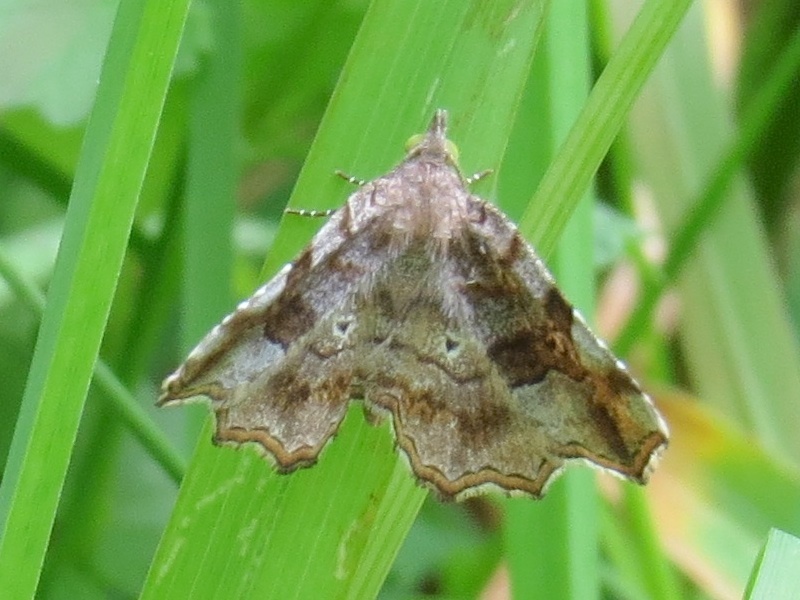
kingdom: Animalia
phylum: Arthropoda
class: Insecta
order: Lepidoptera
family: Erebidae
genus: Pangrapta
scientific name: Pangrapta decoralis
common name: Decorated owlet
